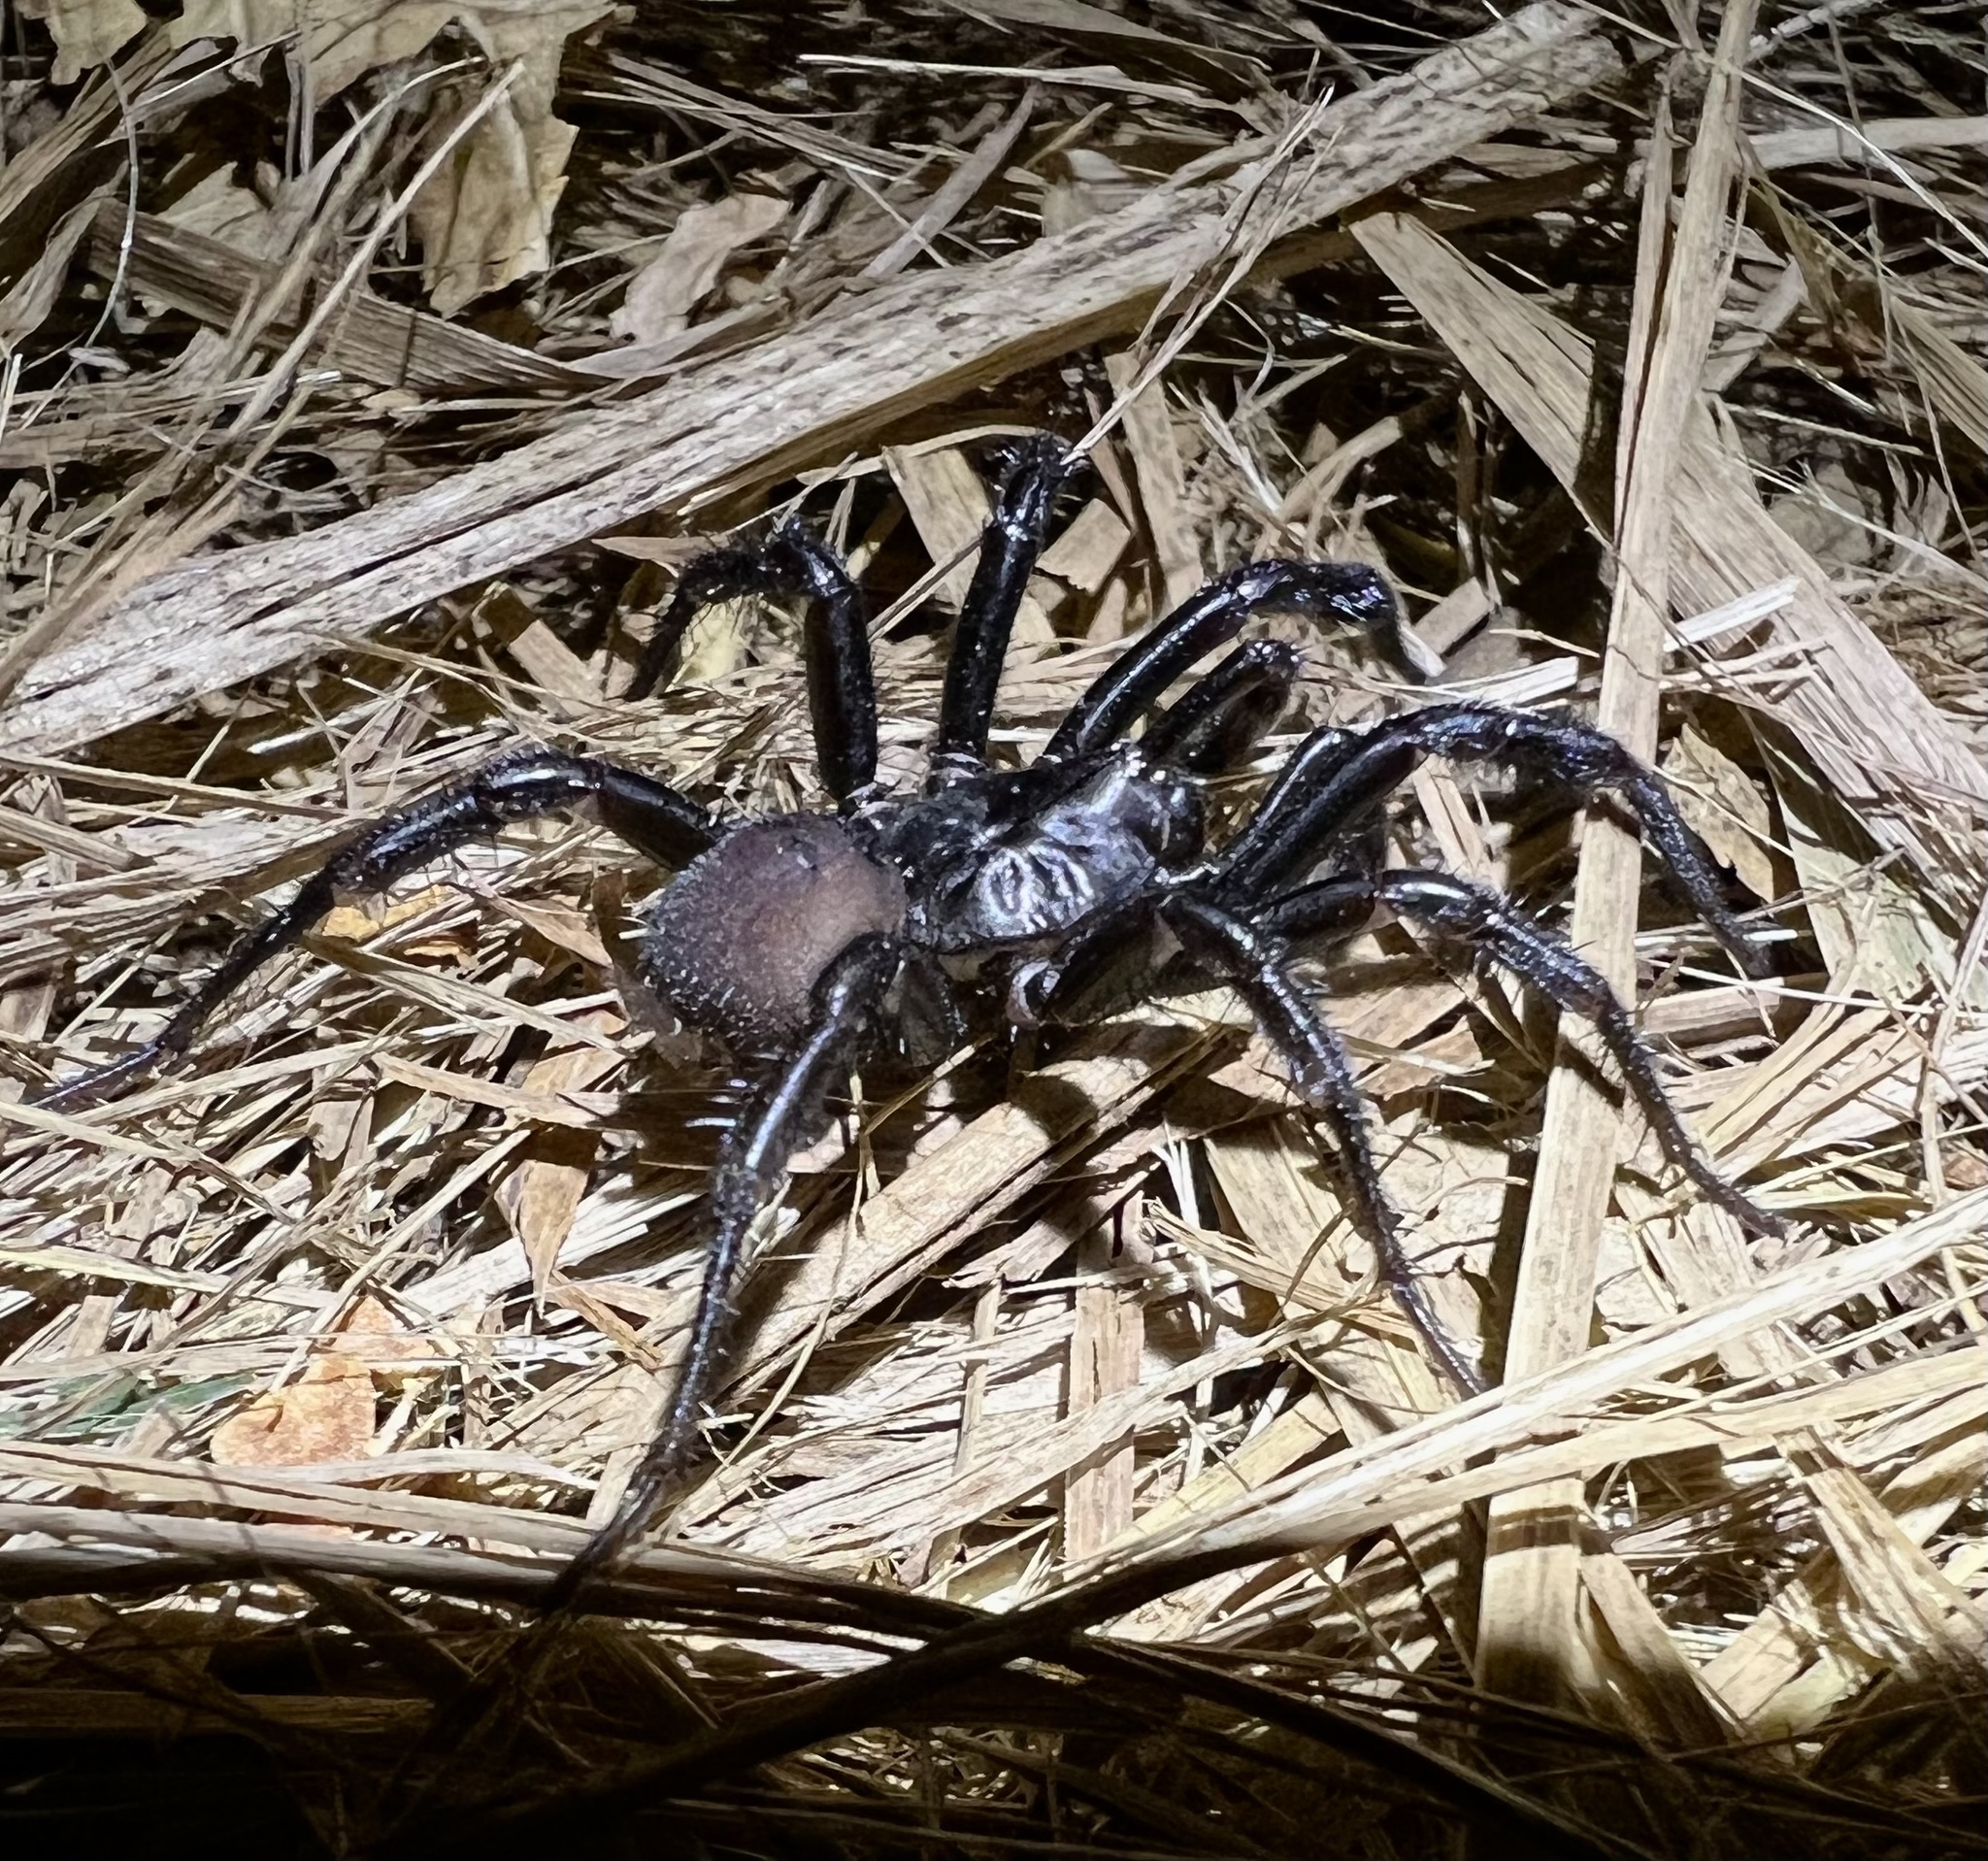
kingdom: Animalia
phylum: Arthropoda
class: Arachnida
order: Araneae
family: Antrodiaetidae
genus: Antrodiaetus
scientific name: Antrodiaetus pacificus
